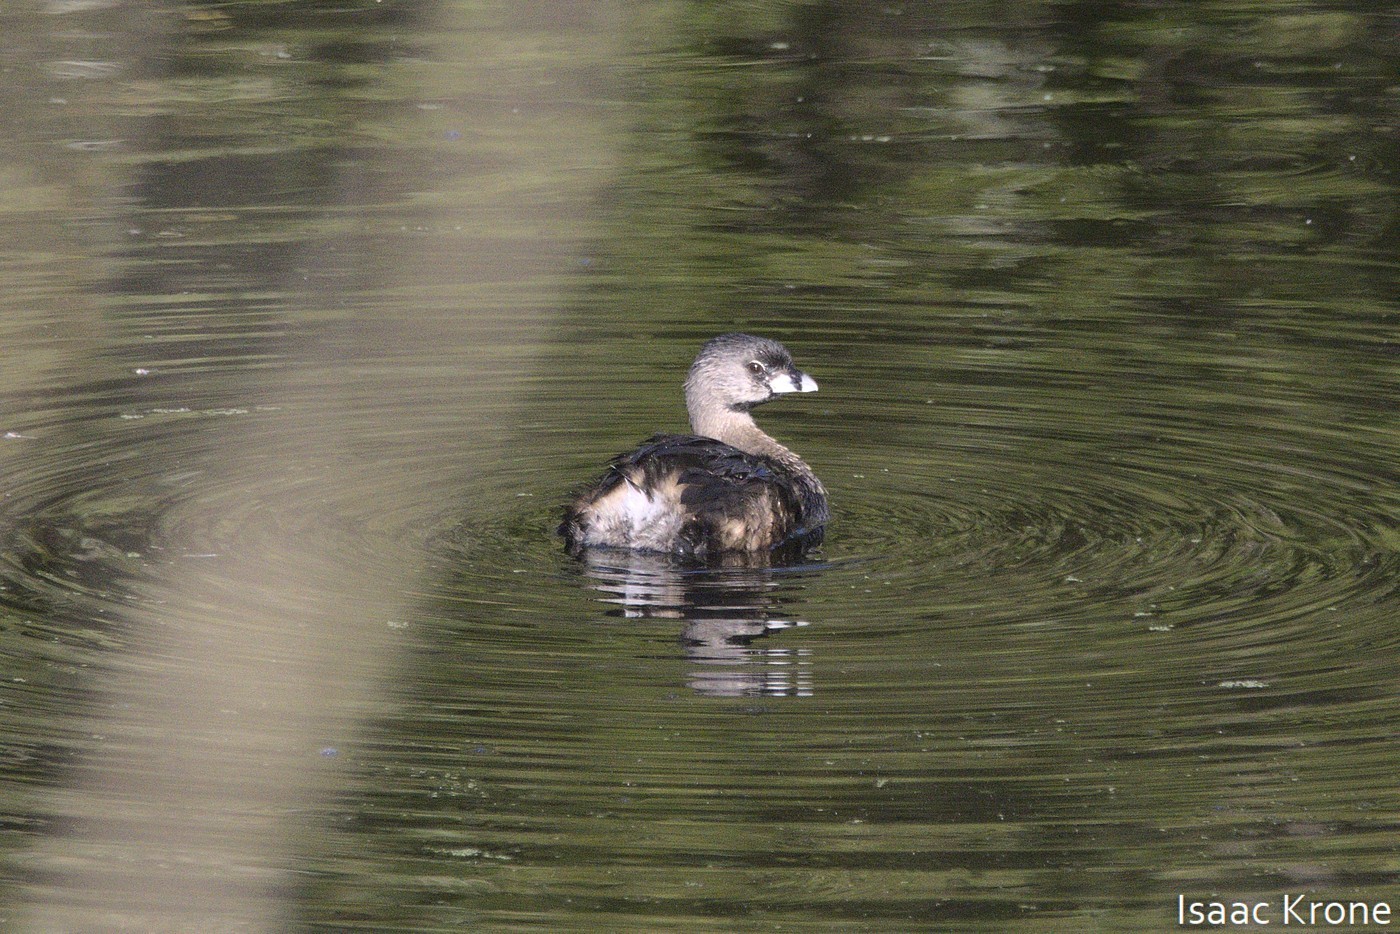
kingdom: Animalia
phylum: Chordata
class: Aves
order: Podicipediformes
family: Podicipedidae
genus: Podilymbus
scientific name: Podilymbus podiceps
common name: Pied-billed grebe
